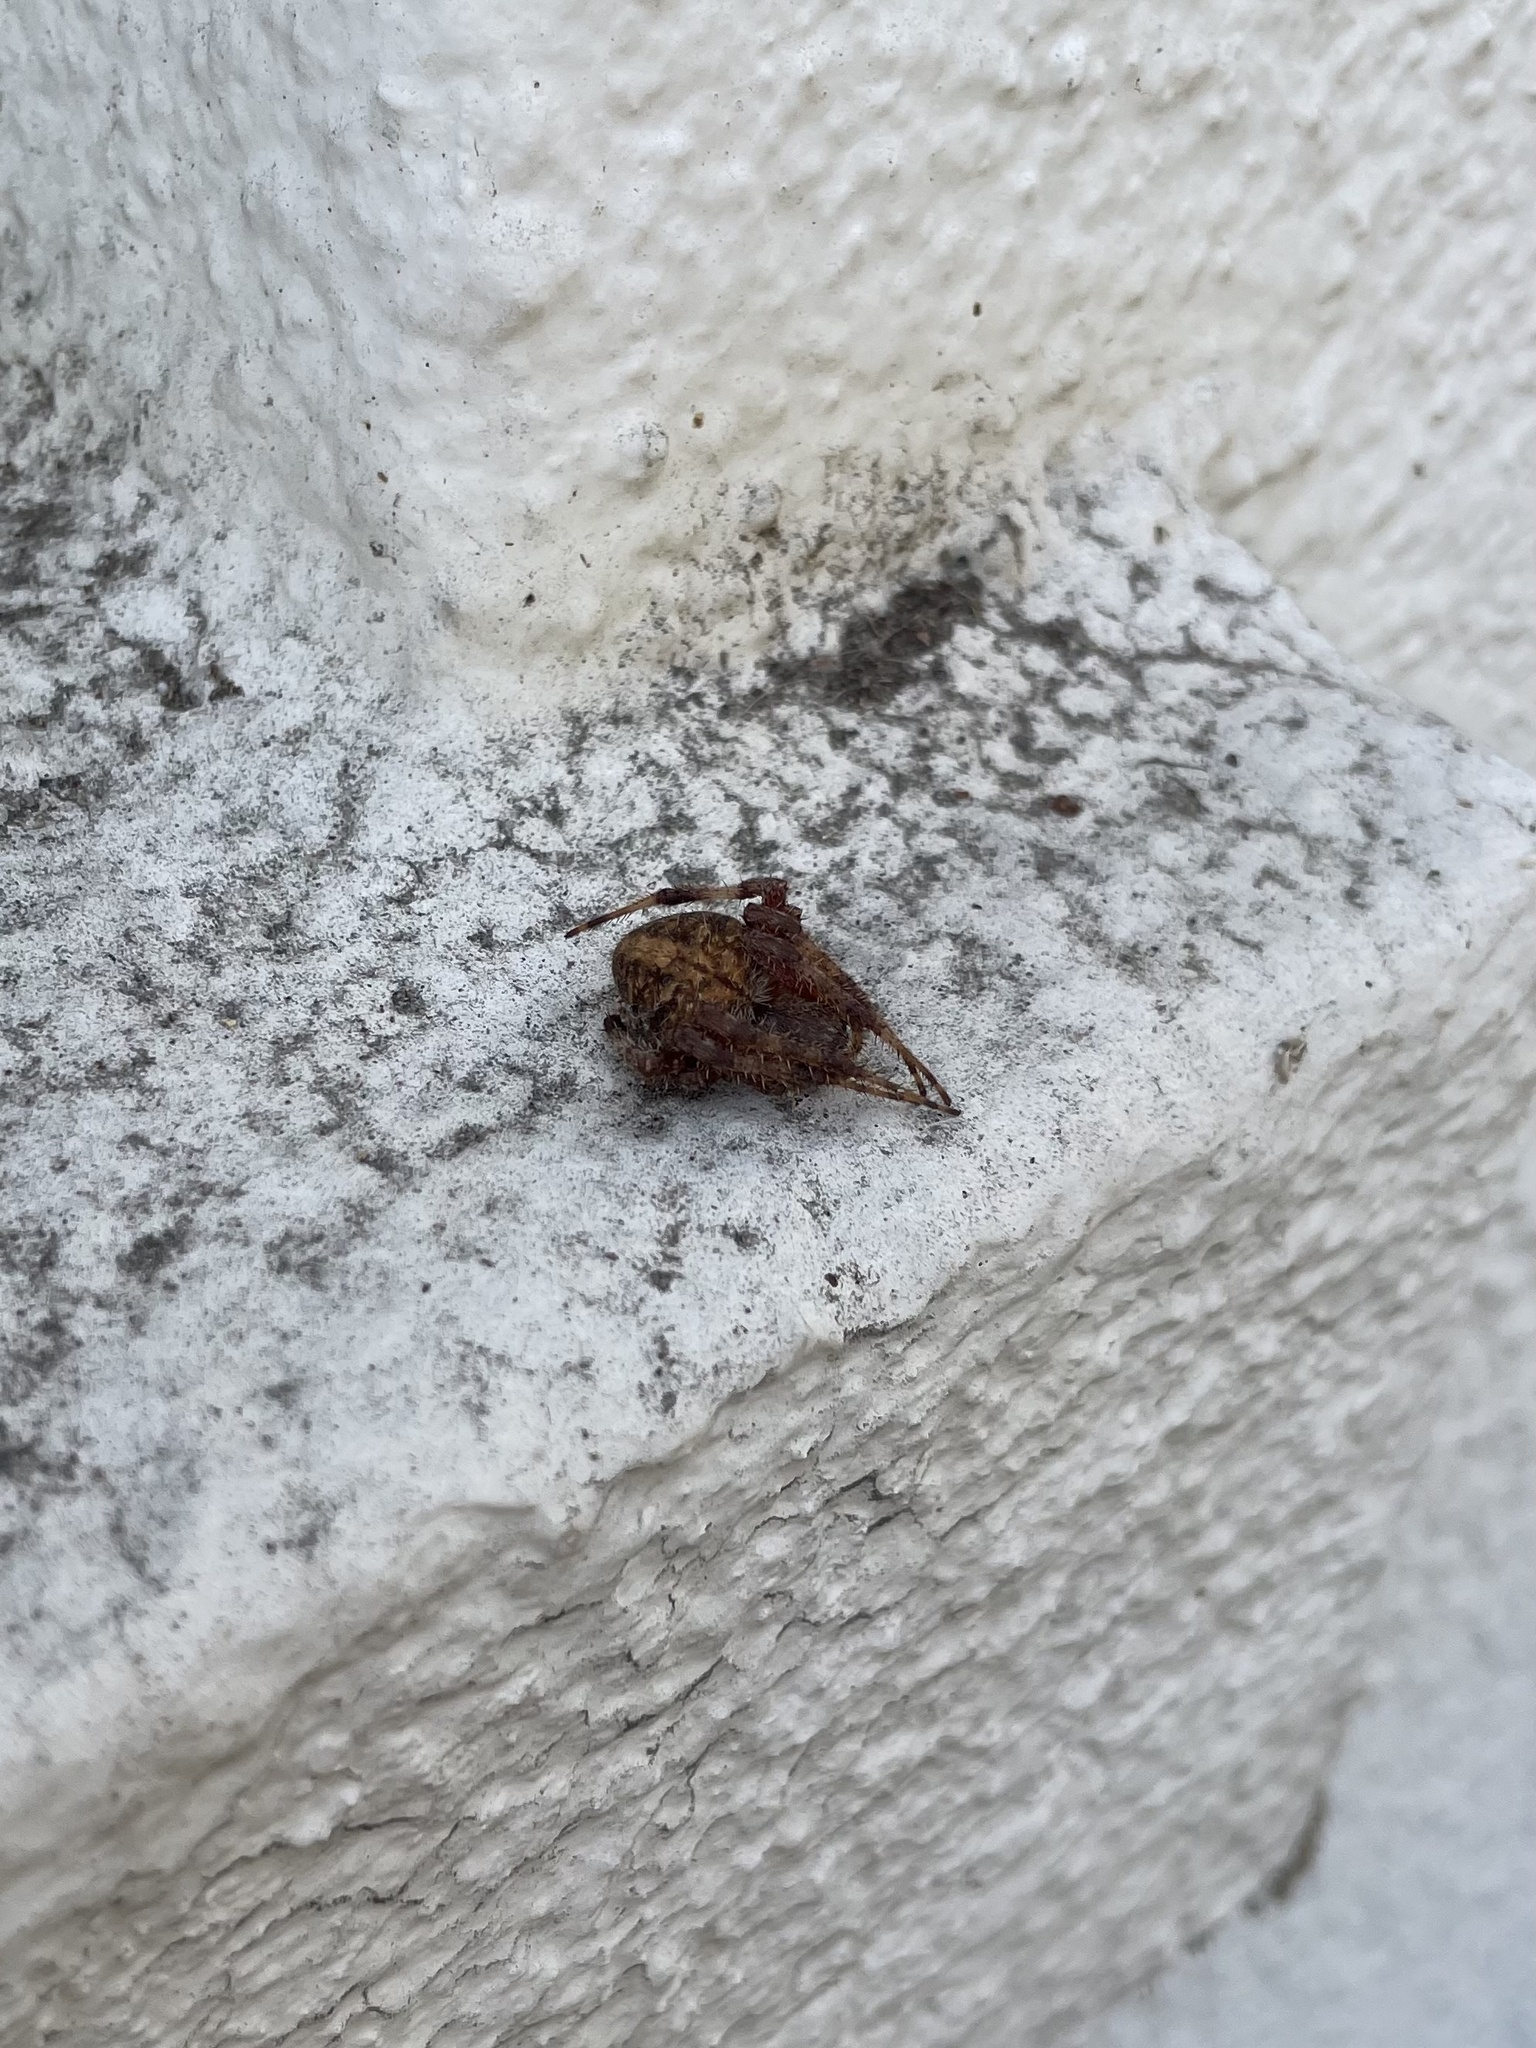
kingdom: Animalia
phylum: Arthropoda
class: Arachnida
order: Araneae
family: Araneidae
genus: Neoscona
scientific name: Neoscona crucifera
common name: Spotted orbweaver
